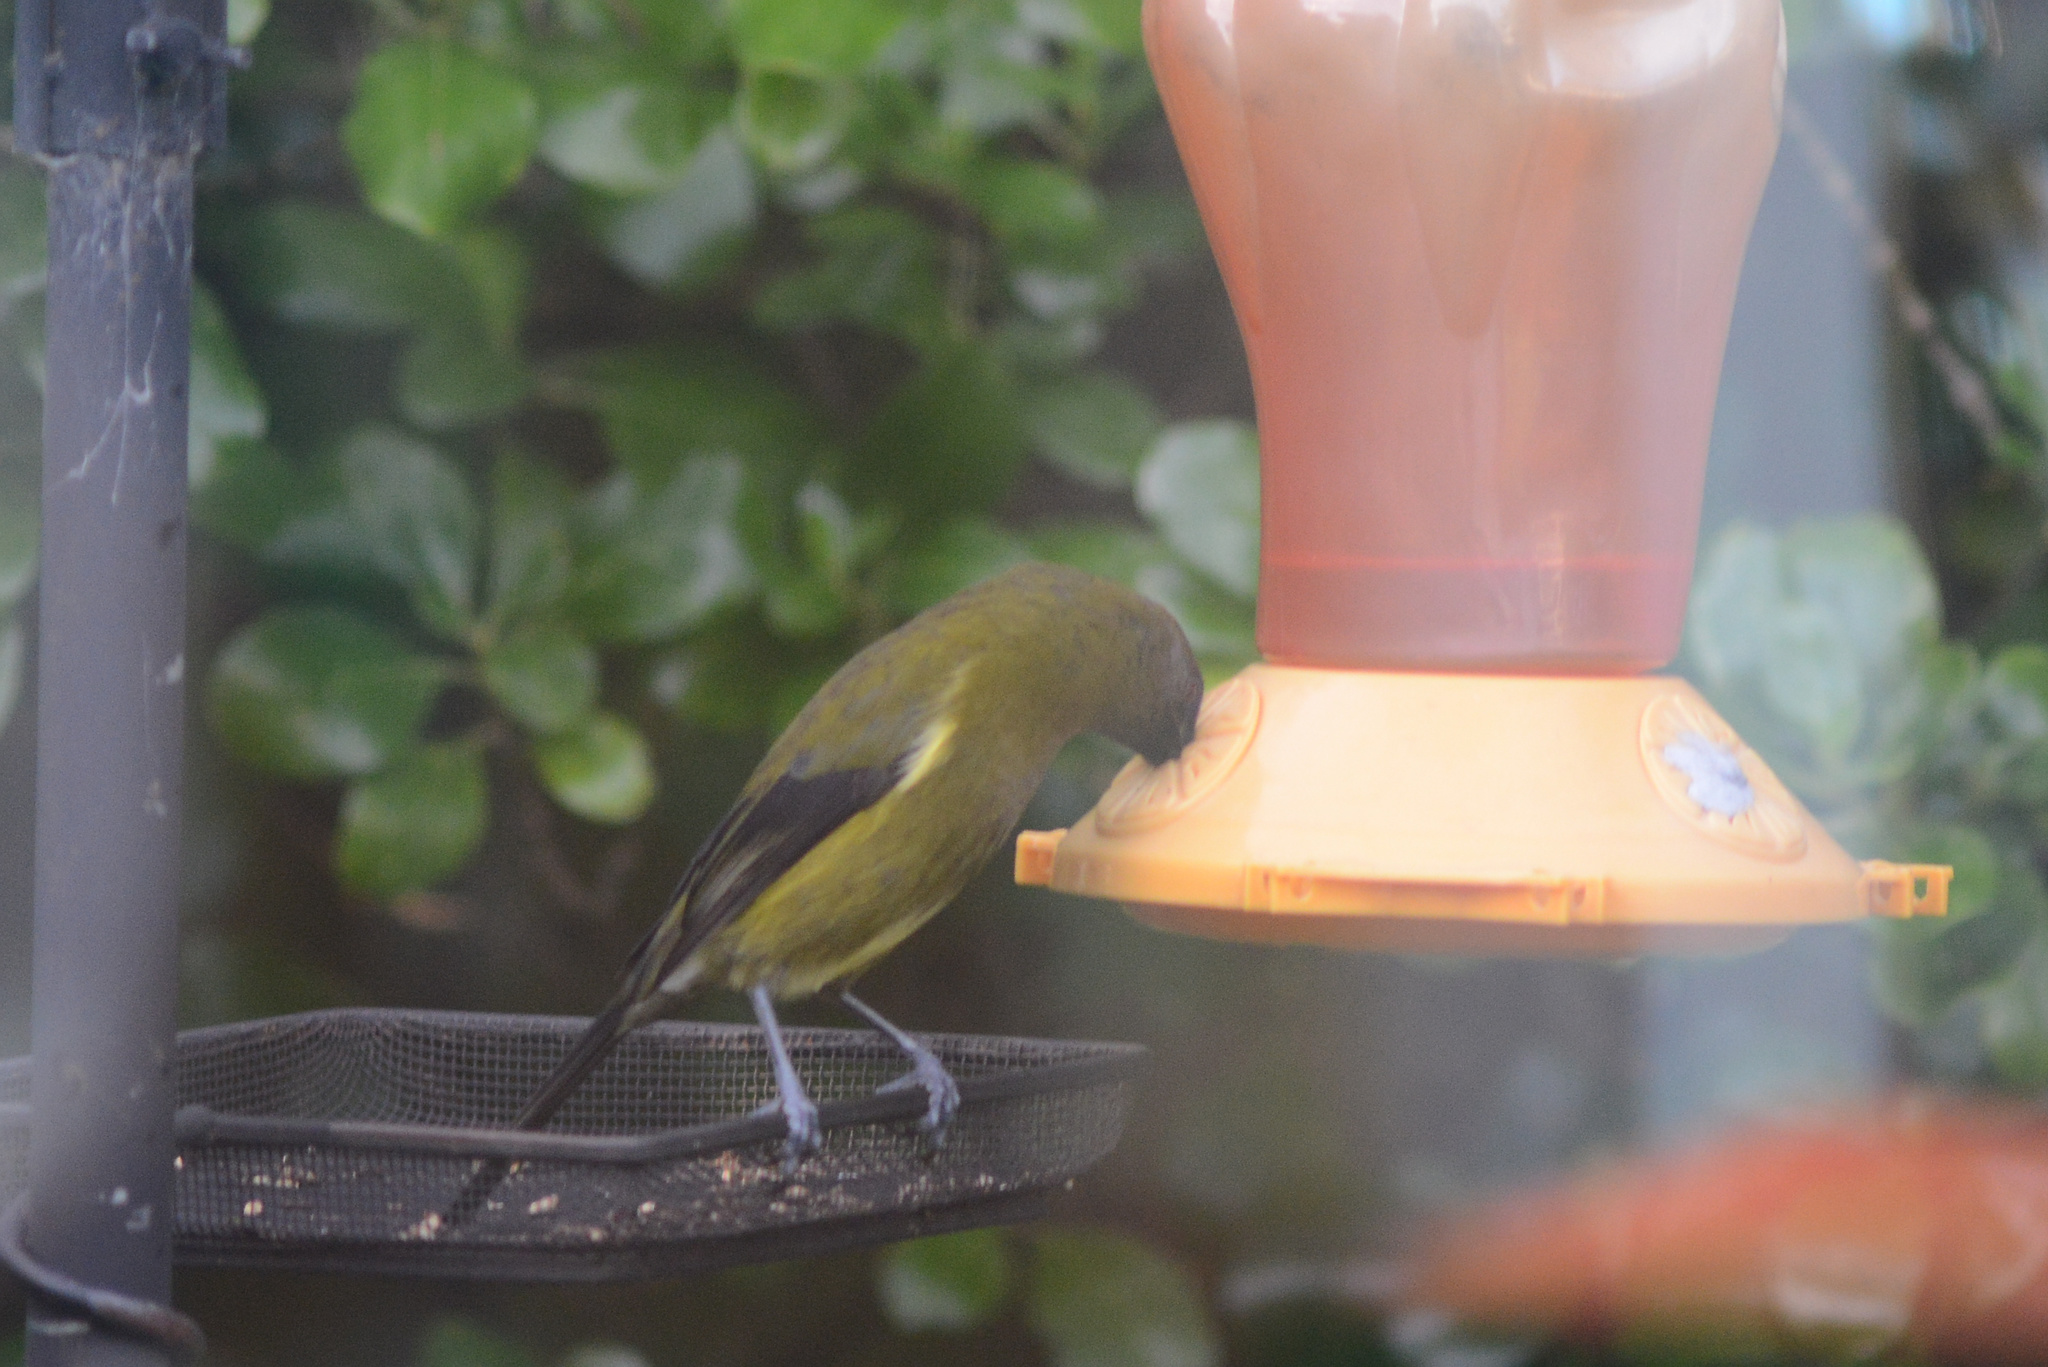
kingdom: Animalia
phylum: Chordata
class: Aves
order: Passeriformes
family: Meliphagidae
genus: Anthornis
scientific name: Anthornis melanura
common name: New zealand bellbird
